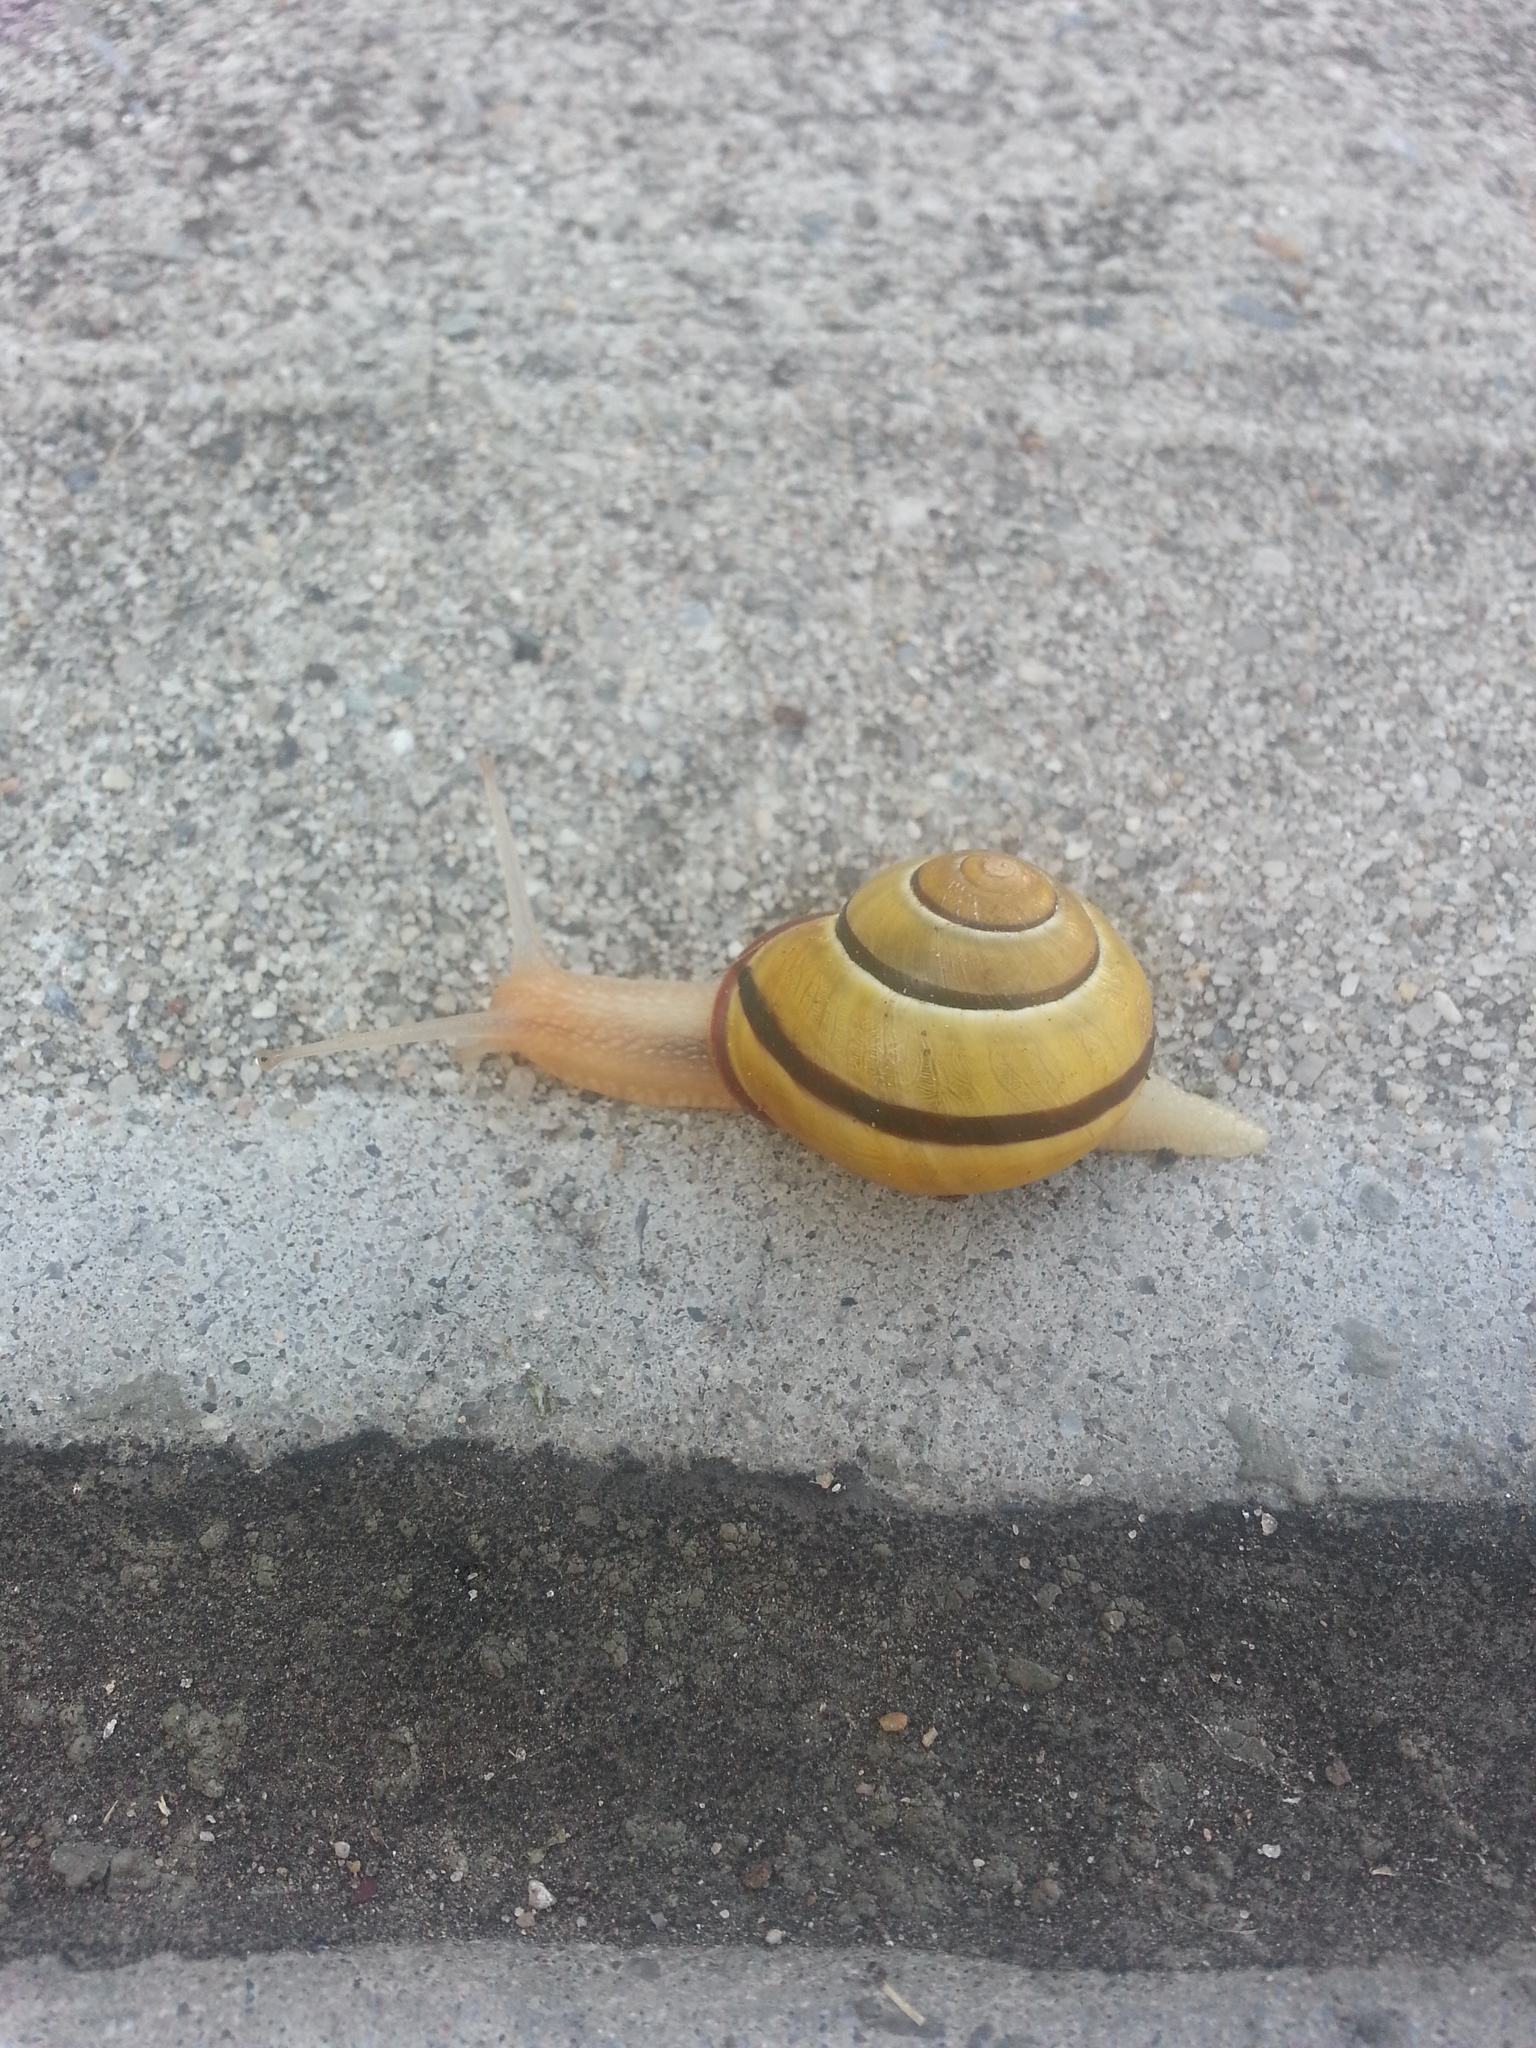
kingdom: Animalia
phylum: Mollusca
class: Gastropoda
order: Stylommatophora
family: Helicidae
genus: Cepaea
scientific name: Cepaea nemoralis
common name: Grovesnail
